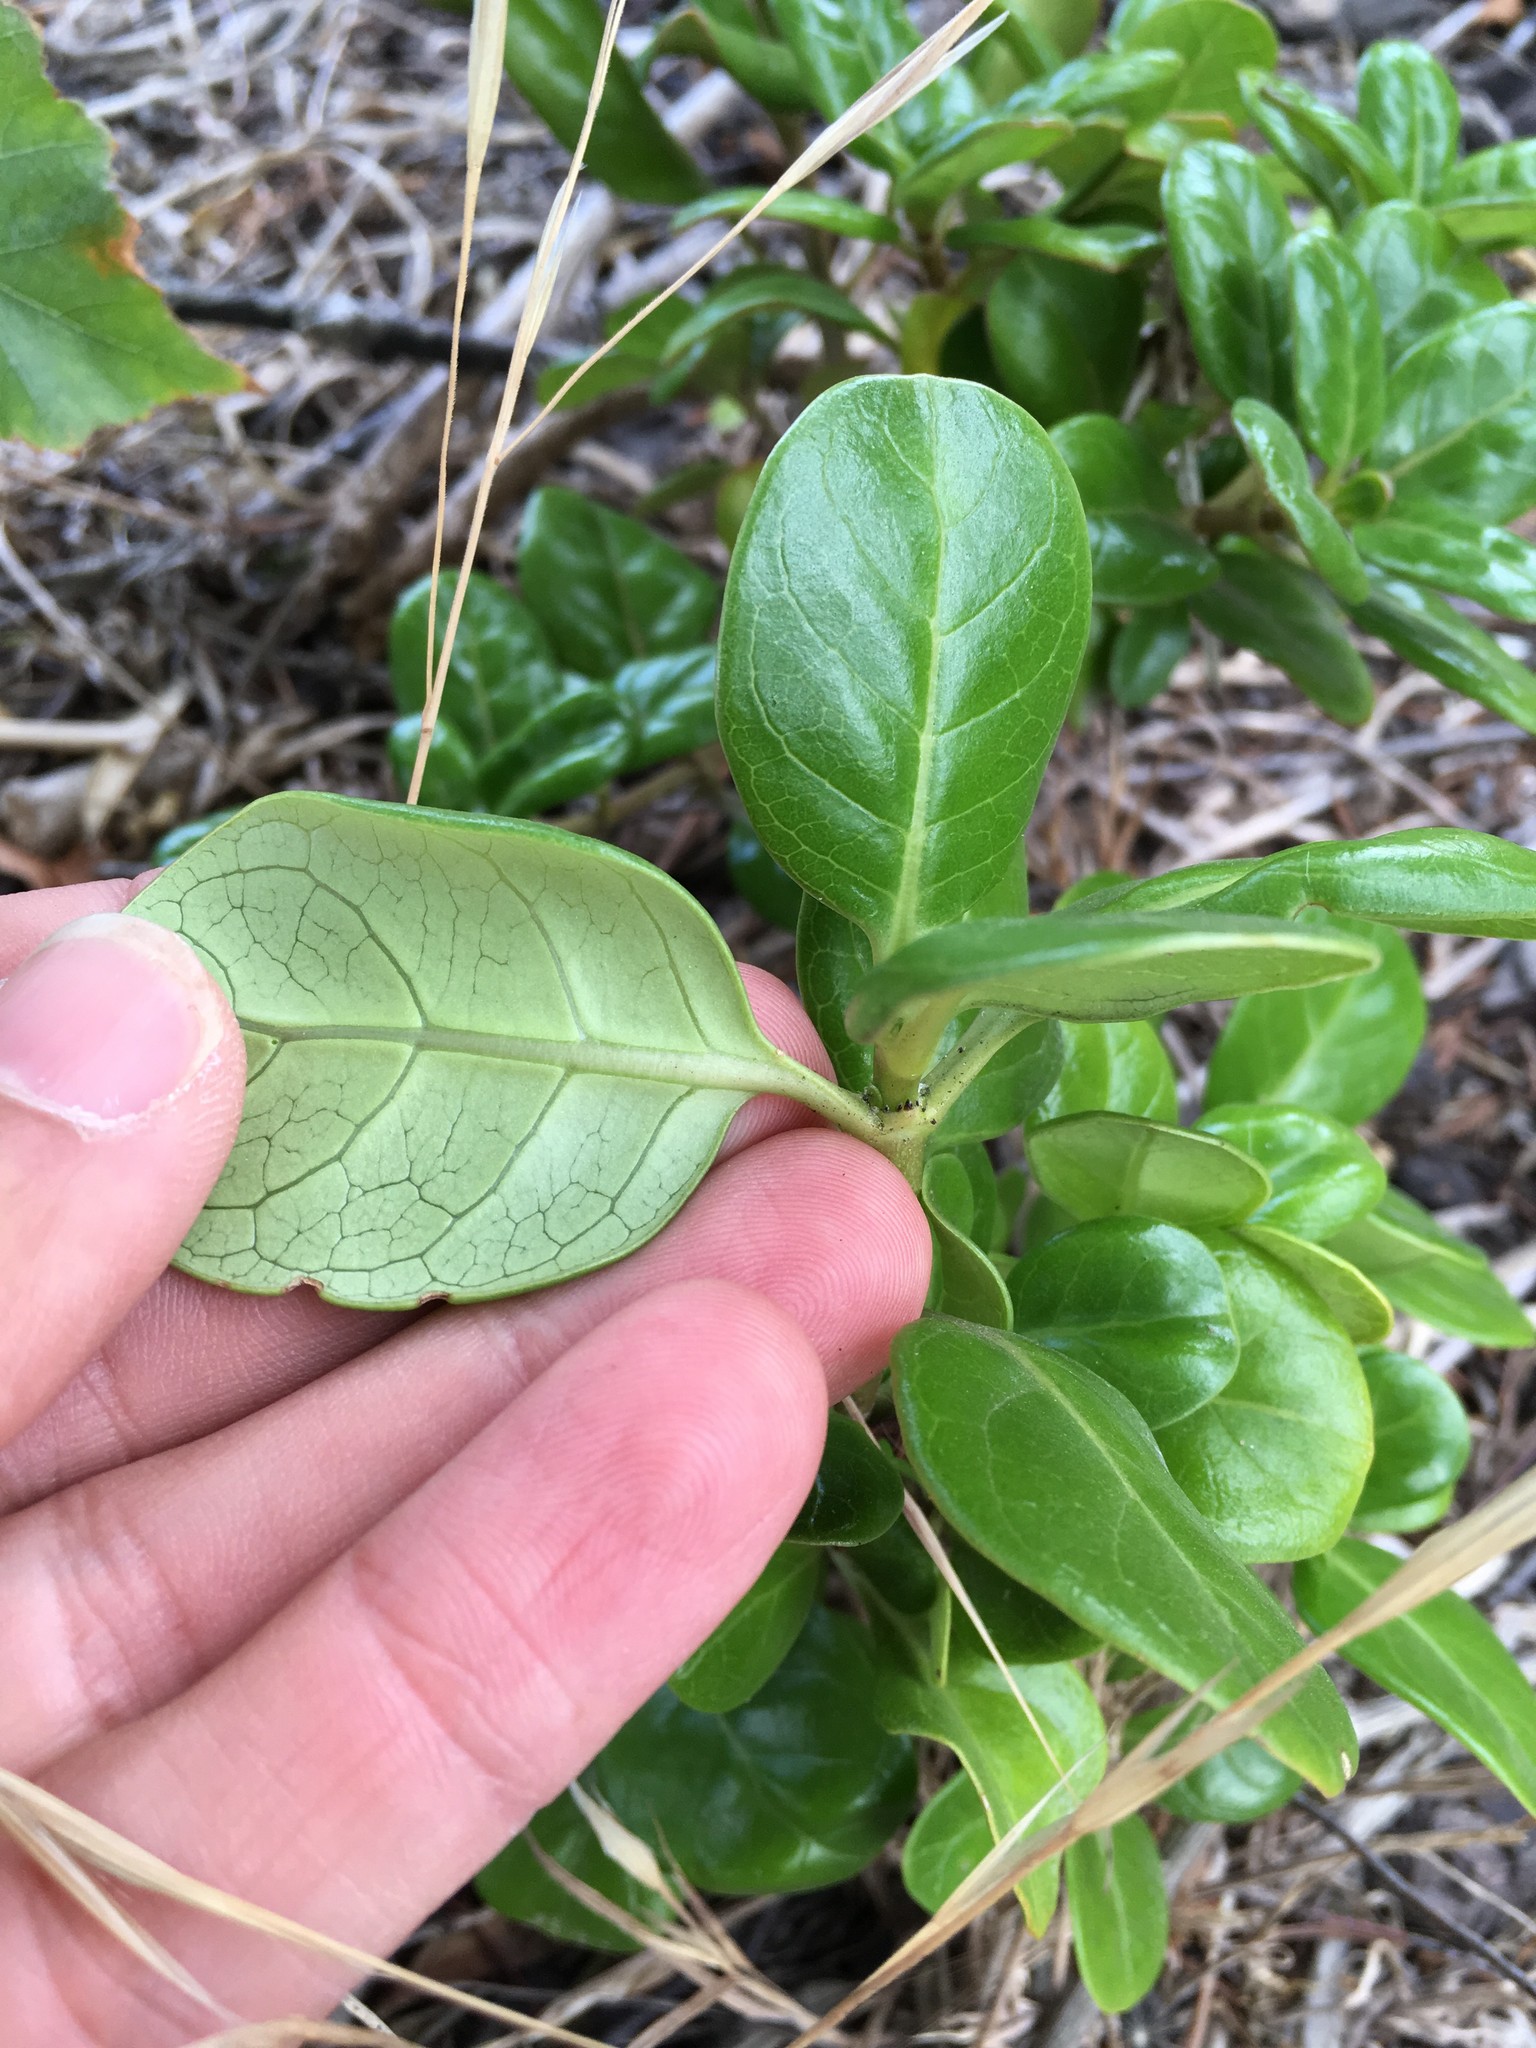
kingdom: Plantae
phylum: Tracheophyta
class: Magnoliopsida
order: Gentianales
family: Rubiaceae
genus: Coprosma
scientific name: Coprosma repens
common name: Tree bedstraw
